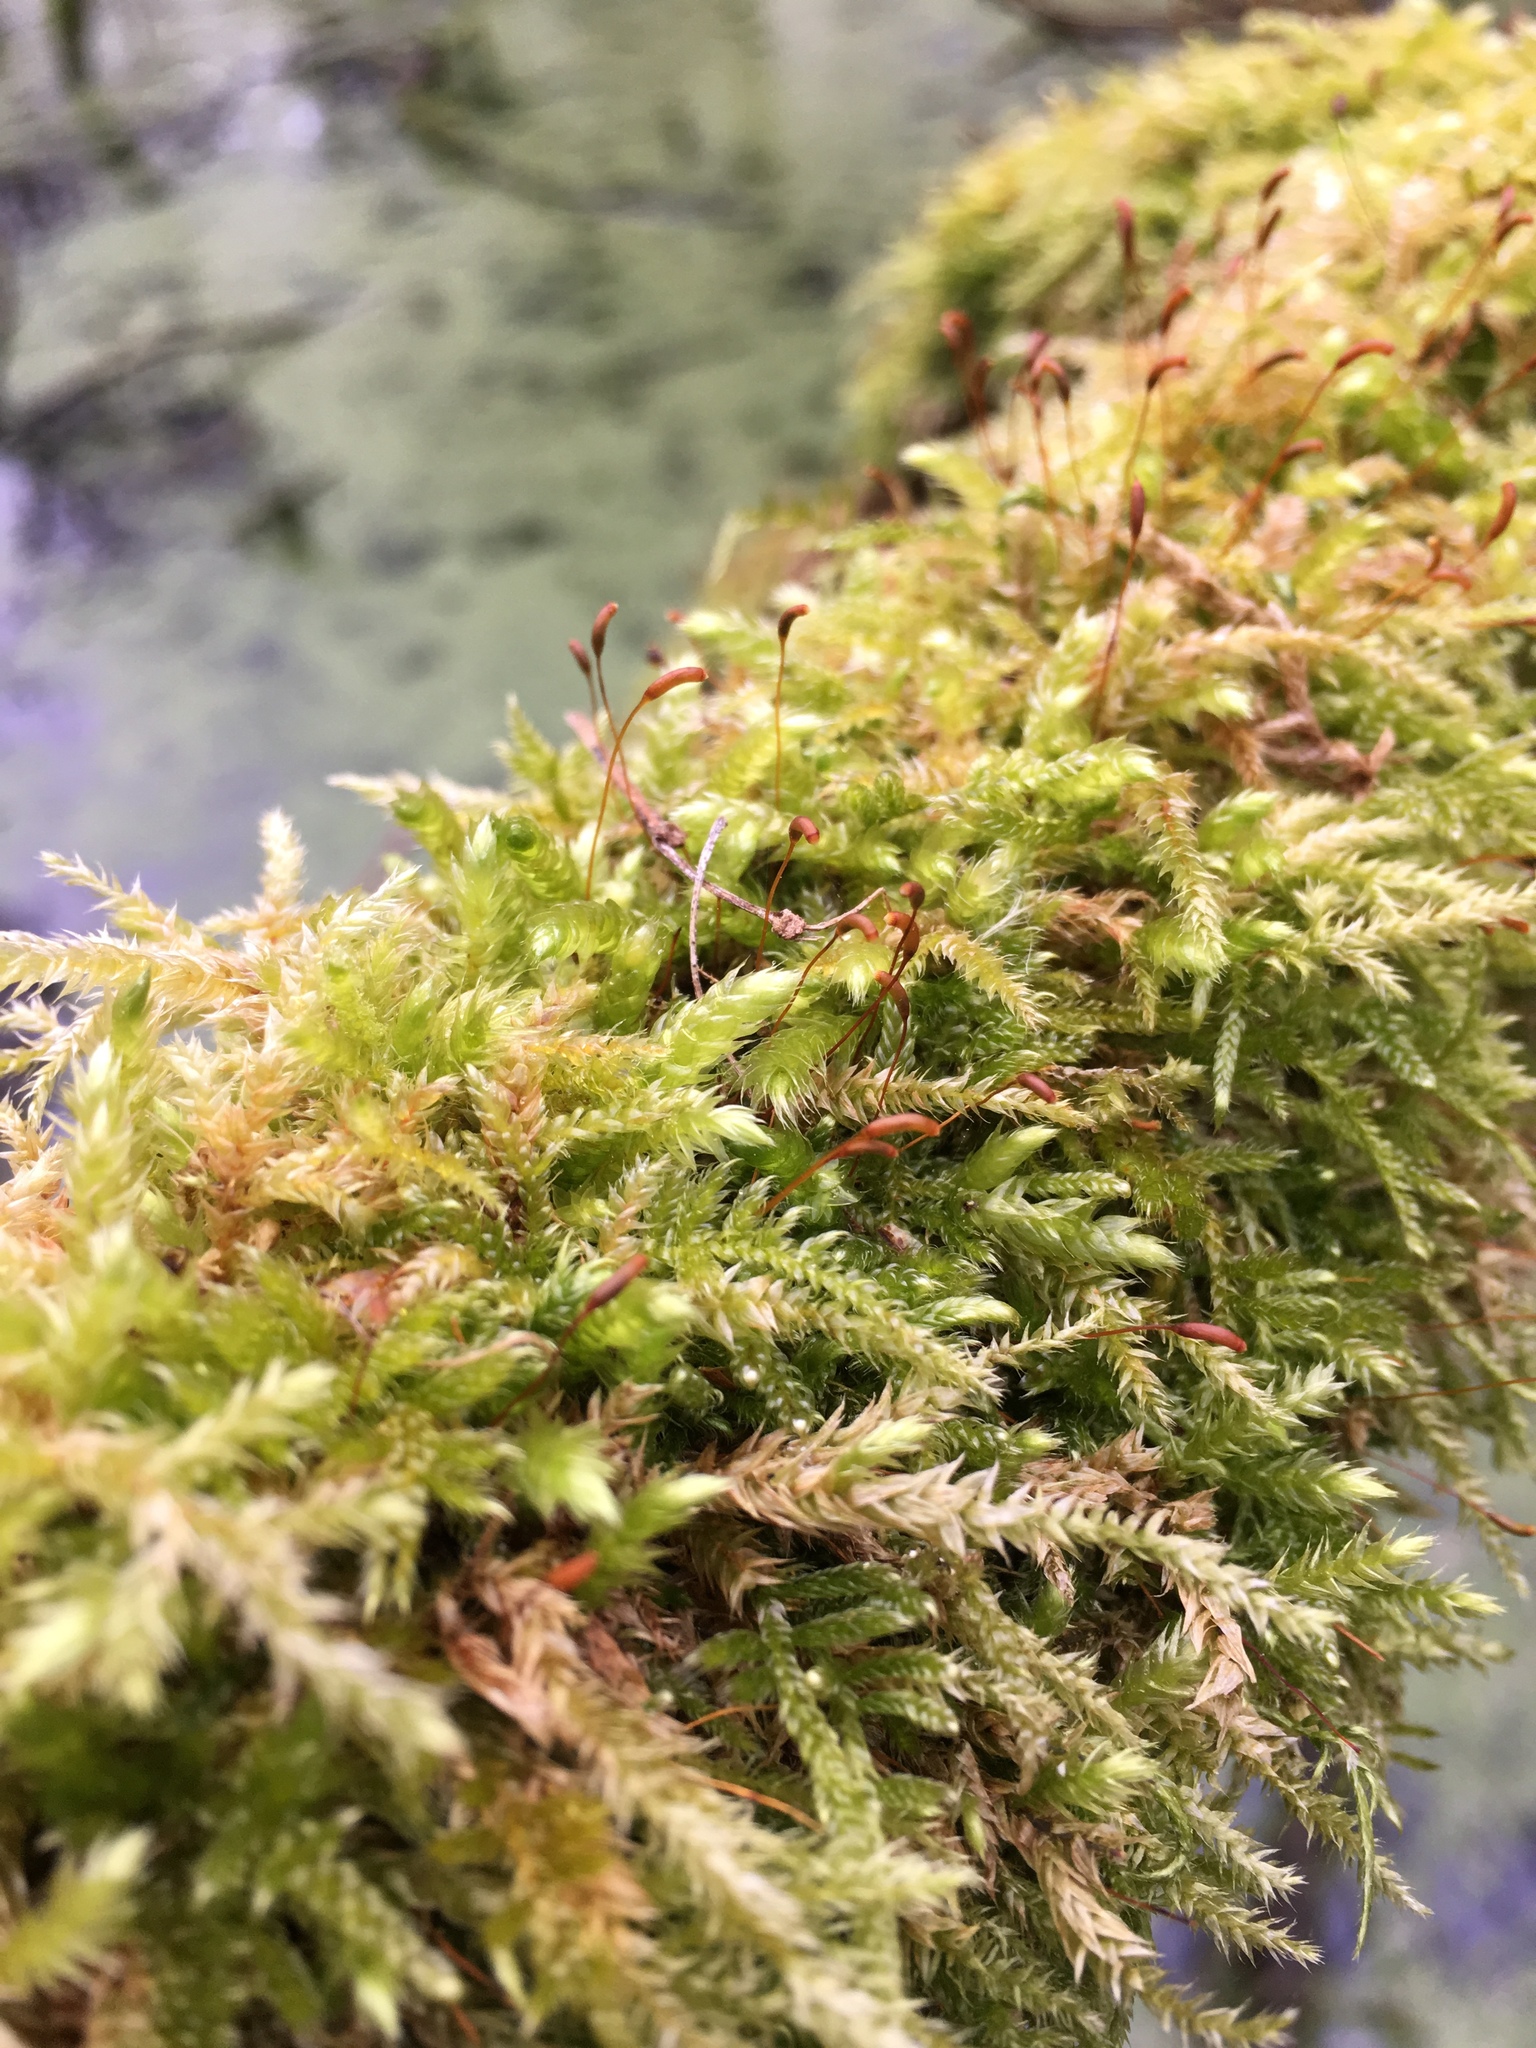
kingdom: Plantae
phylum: Bryophyta
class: Bryopsida
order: Hypnales
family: Hypnaceae
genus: Hypnum
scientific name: Hypnum cupressiforme
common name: Cypress-leaved plait-moss
